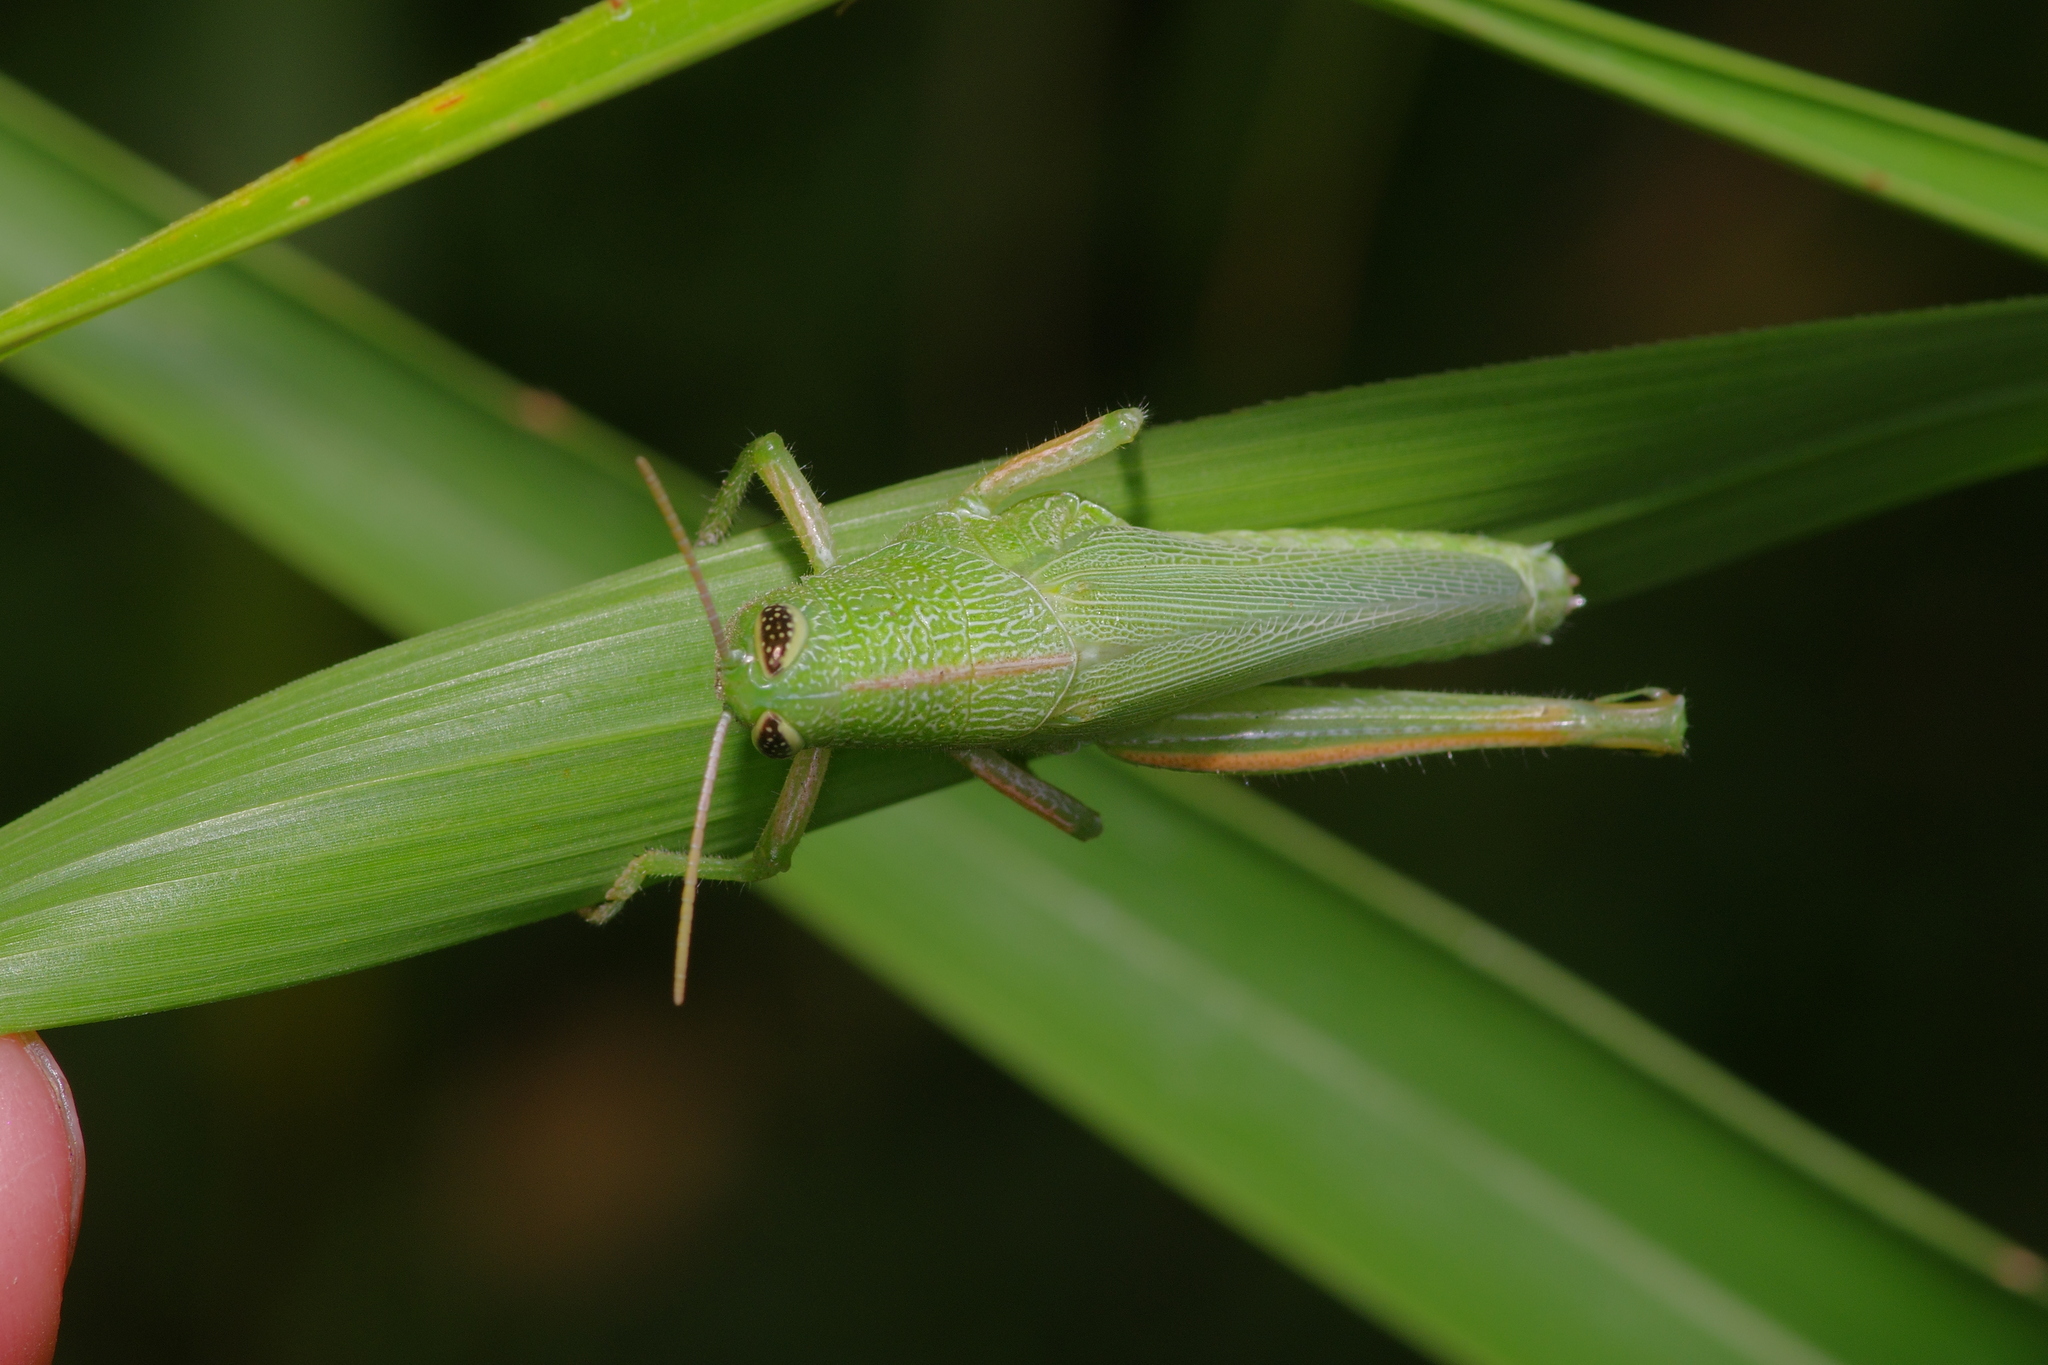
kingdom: Animalia
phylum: Arthropoda
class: Insecta
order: Orthoptera
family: Acrididae
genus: Hesperotettix
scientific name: Hesperotettix speciosus
